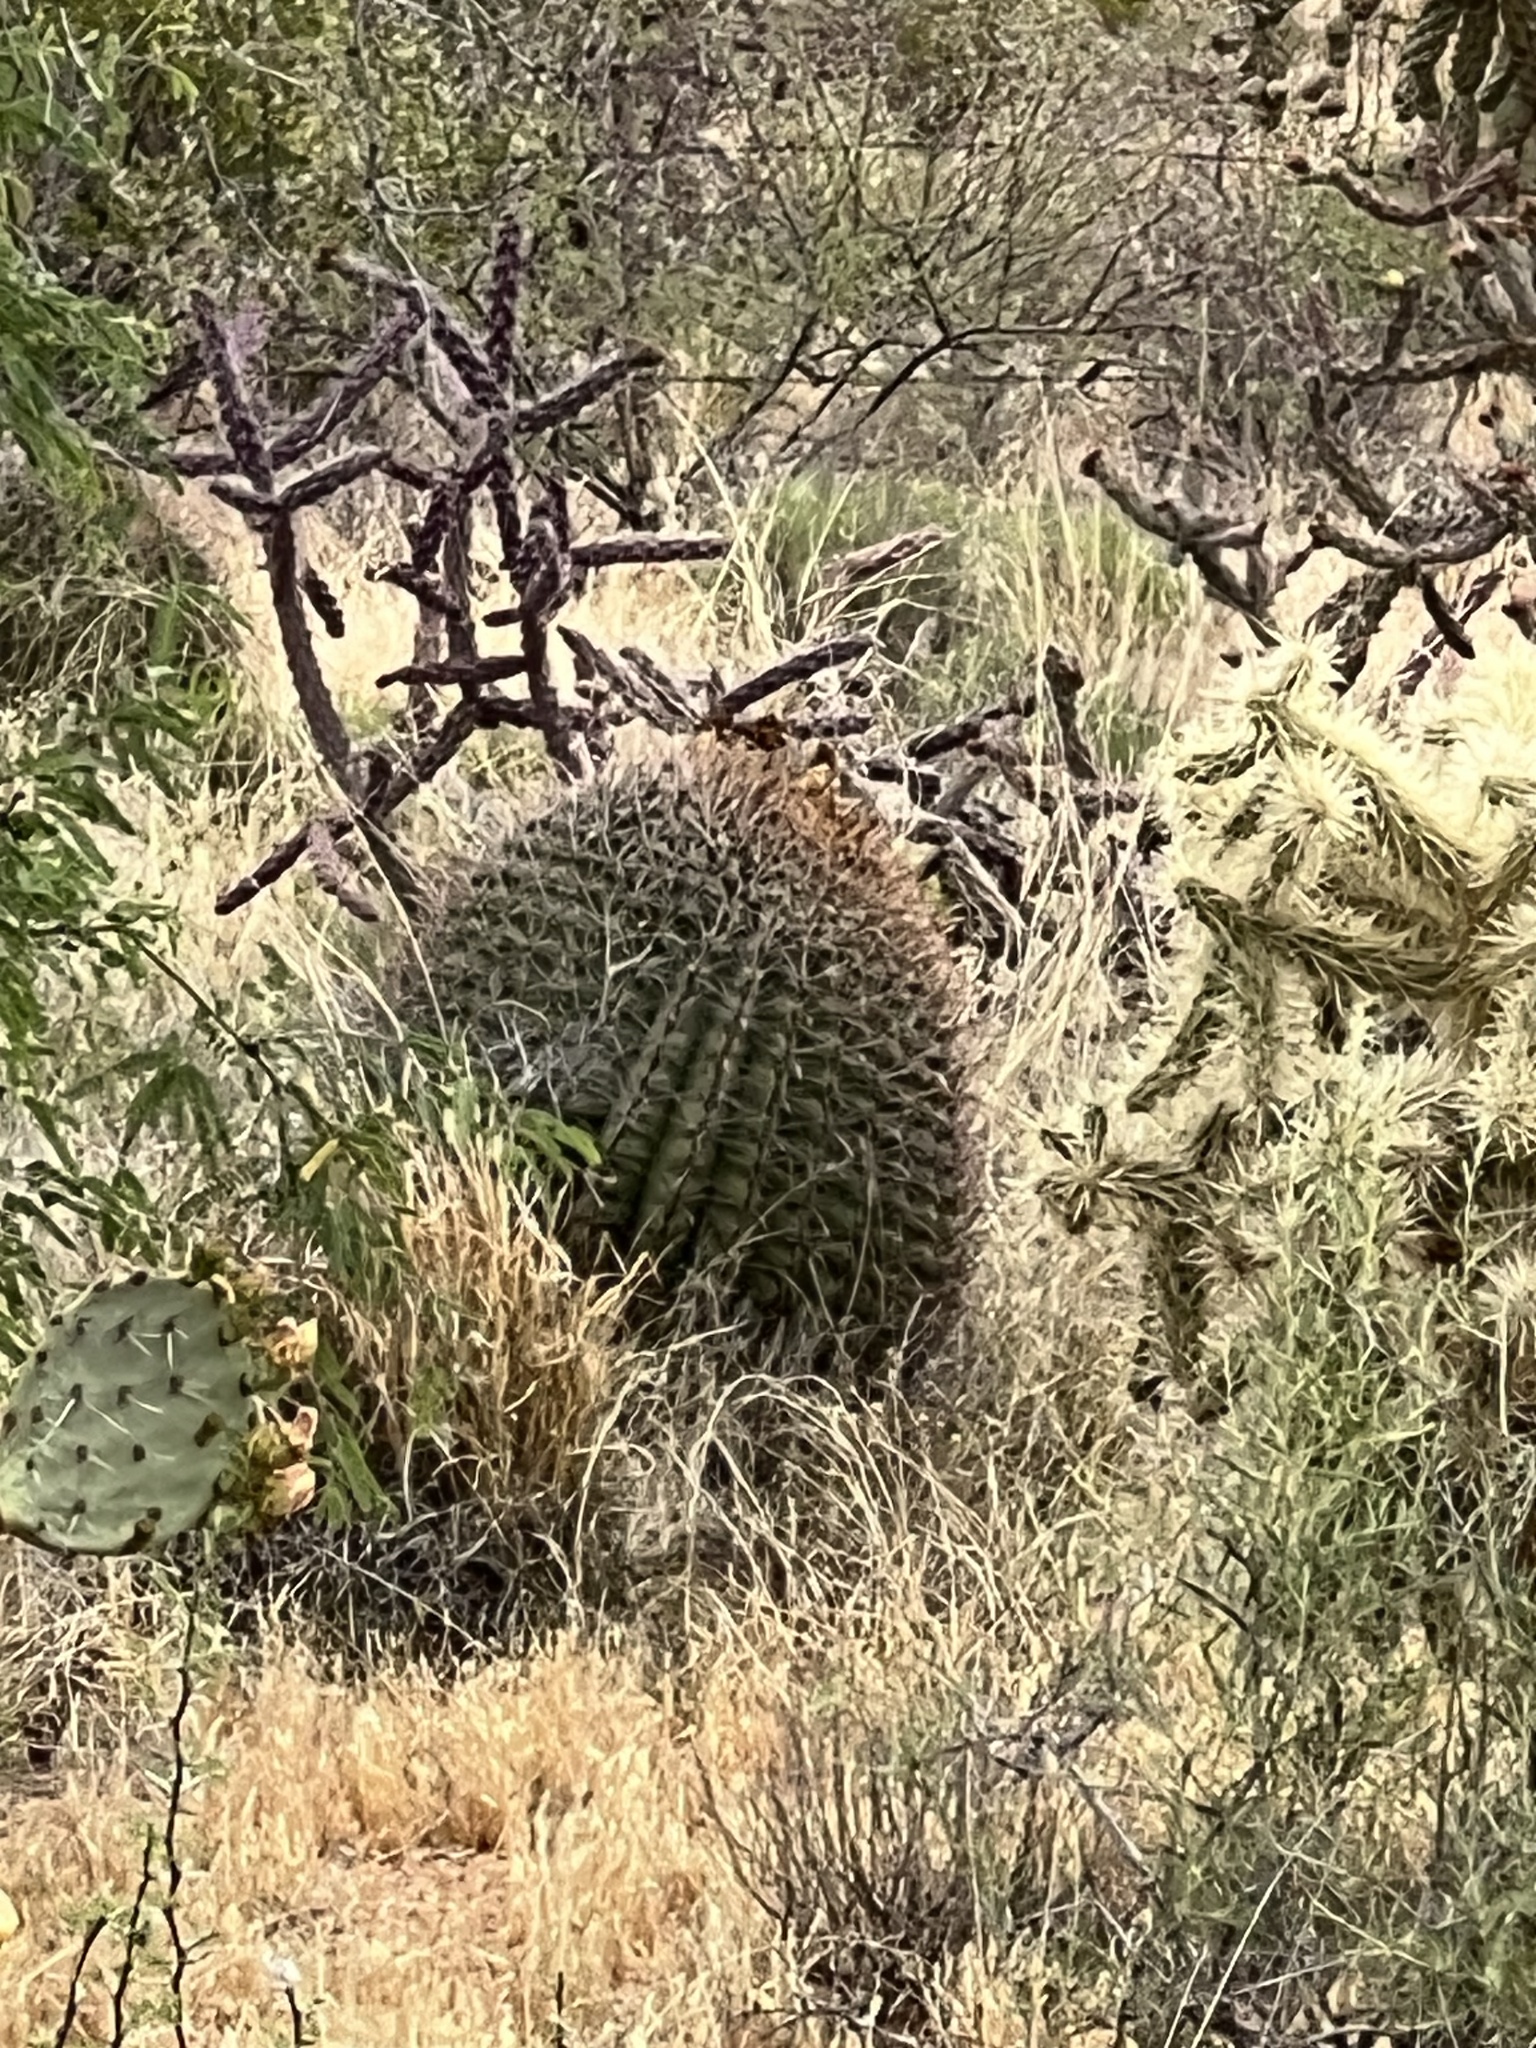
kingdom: Plantae
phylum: Tracheophyta
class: Magnoliopsida
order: Caryophyllales
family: Cactaceae
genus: Ferocactus
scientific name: Ferocactus wislizeni
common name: Candy barrel cactus
